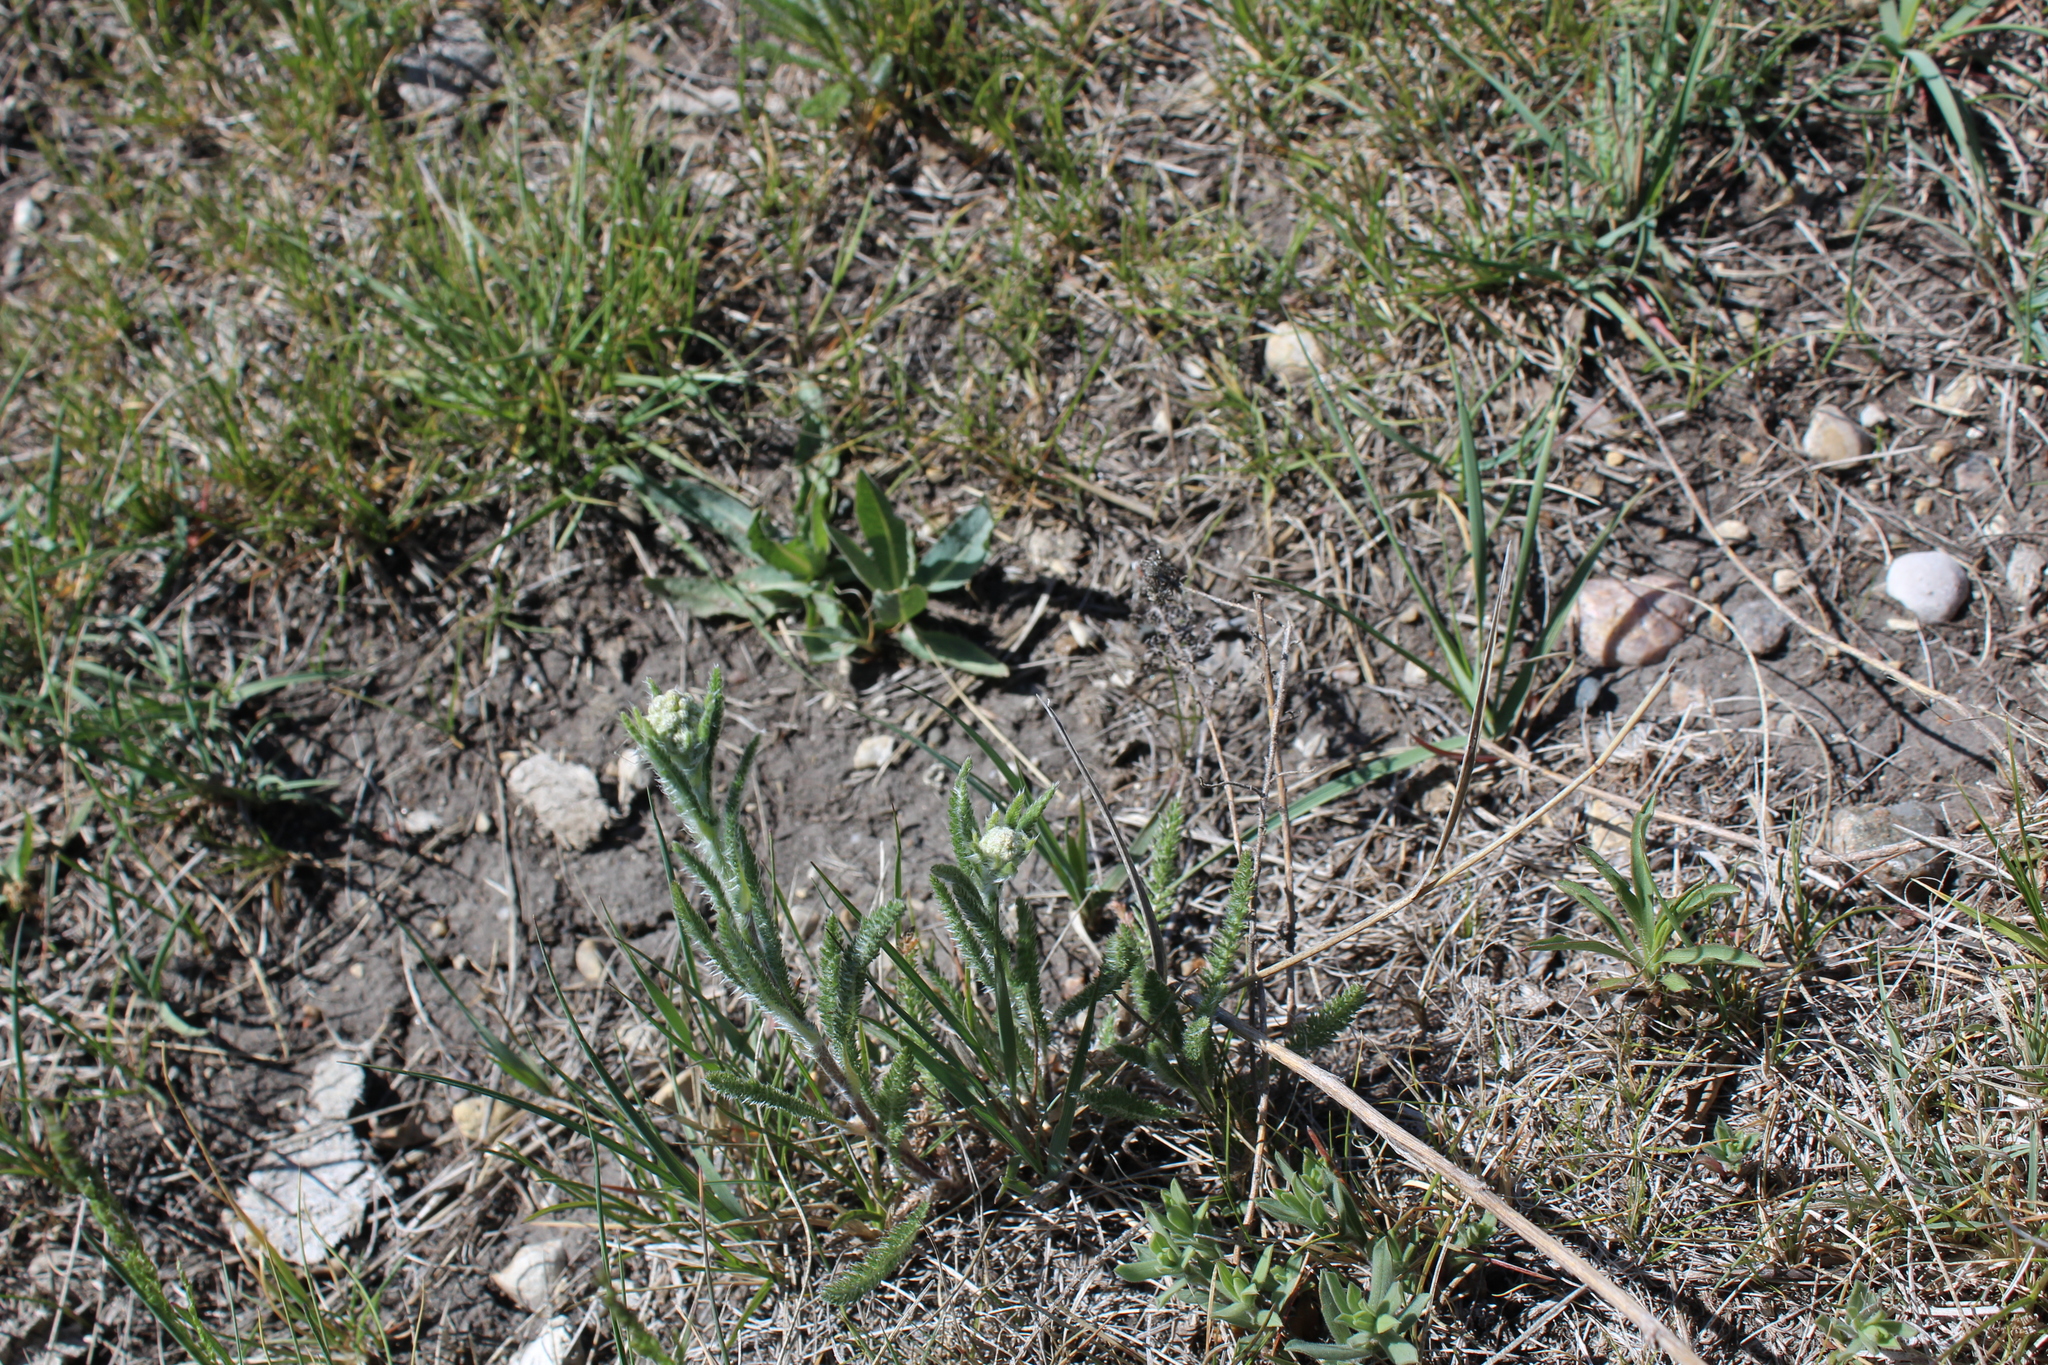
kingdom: Plantae
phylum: Tracheophyta
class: Magnoliopsida
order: Asterales
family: Asteraceae
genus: Achillea
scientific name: Achillea millefolium
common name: Yarrow
